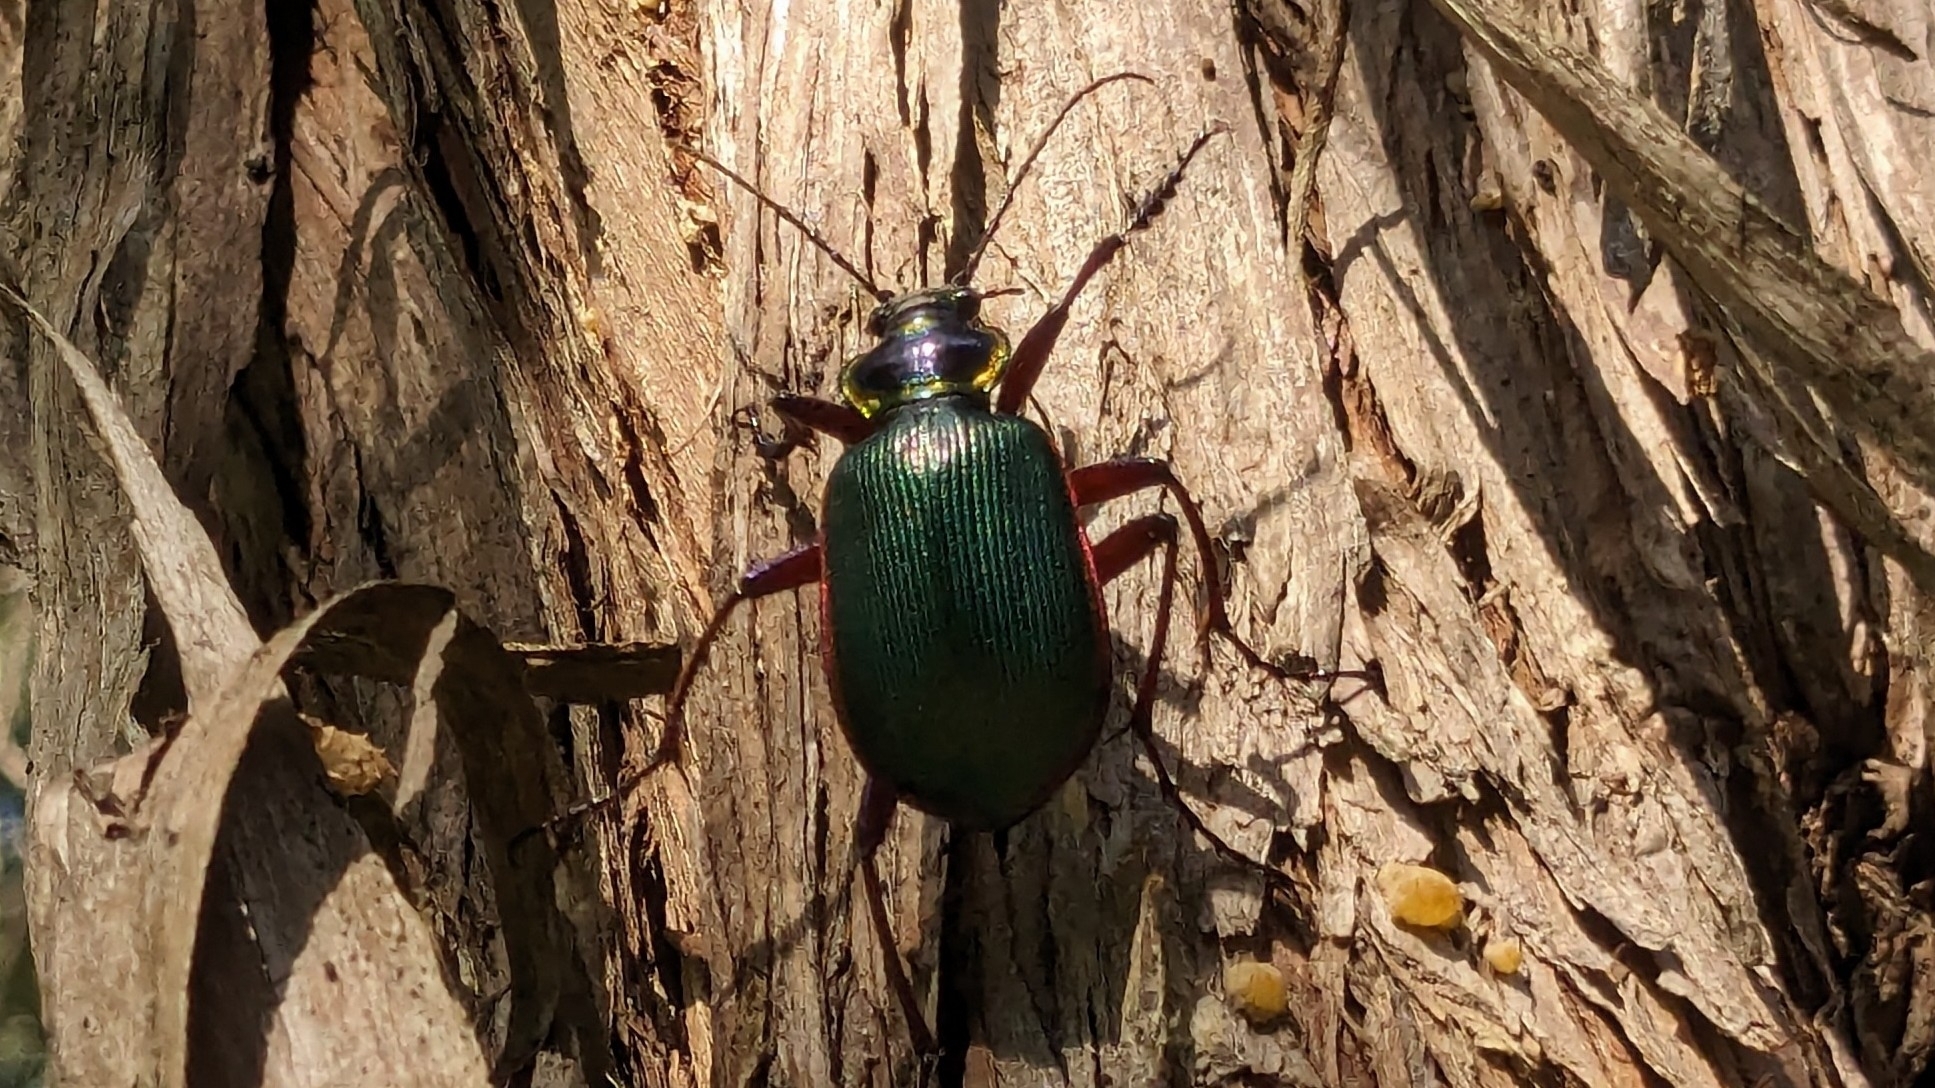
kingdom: Animalia
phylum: Arthropoda
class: Insecta
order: Coleoptera
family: Carabidae
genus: Calosoma
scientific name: Calosoma scrutator
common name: Fiery searcher beetle
